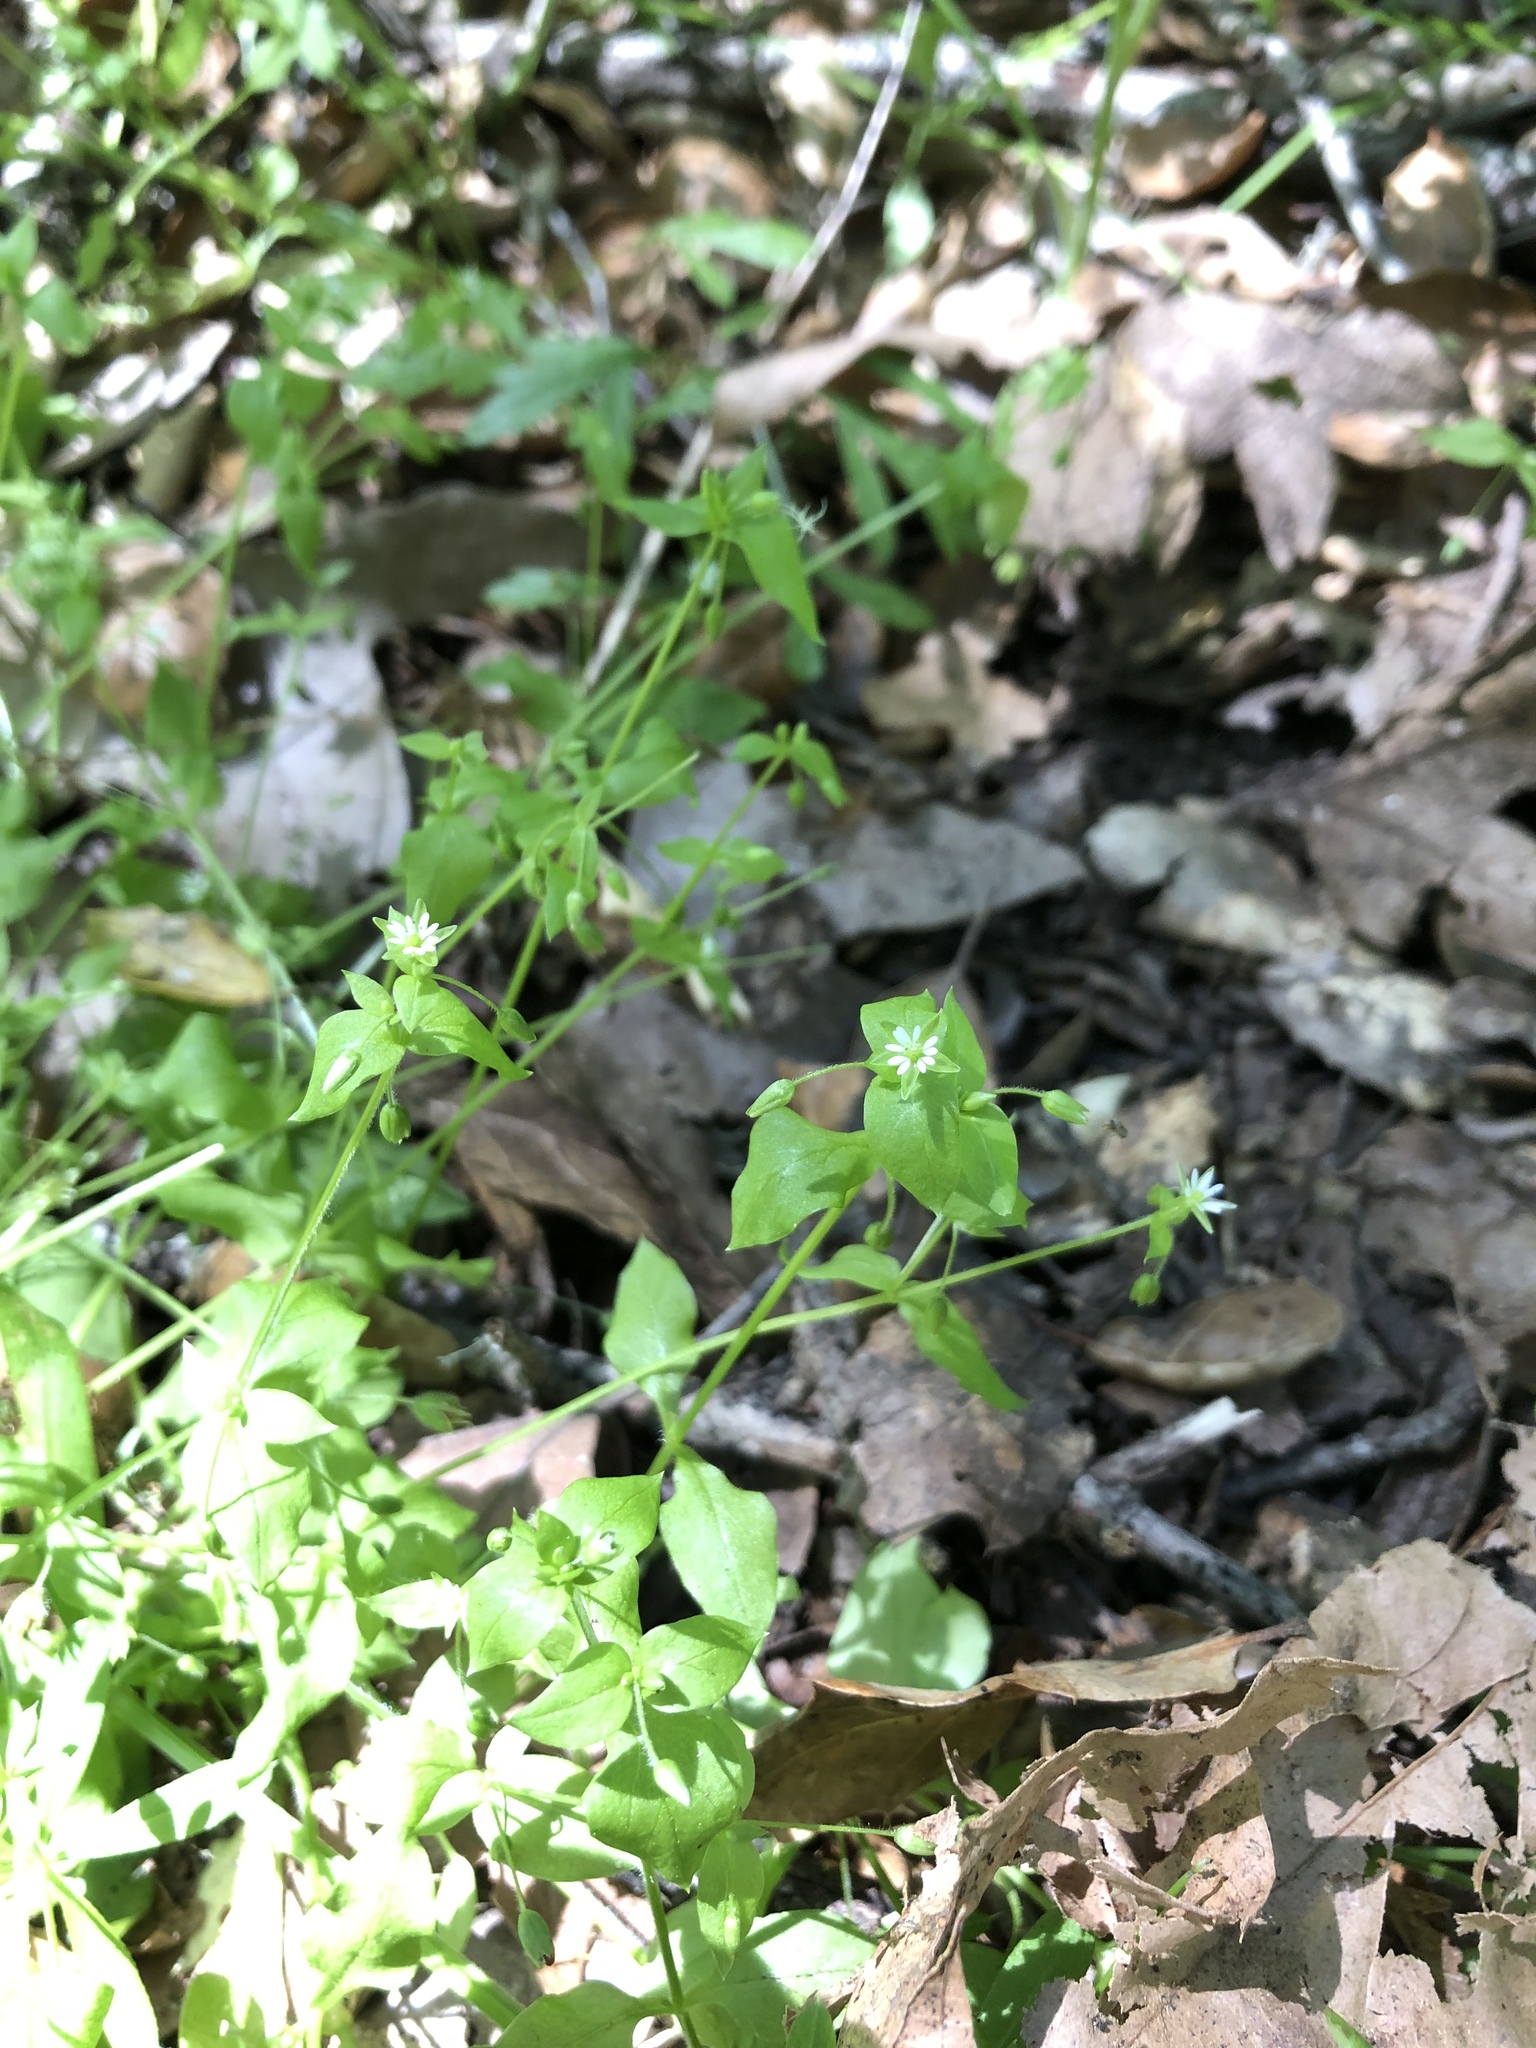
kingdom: Plantae
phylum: Tracheophyta
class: Magnoliopsida
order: Caryophyllales
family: Caryophyllaceae
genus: Stellaria
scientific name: Stellaria media
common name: Common chickweed
